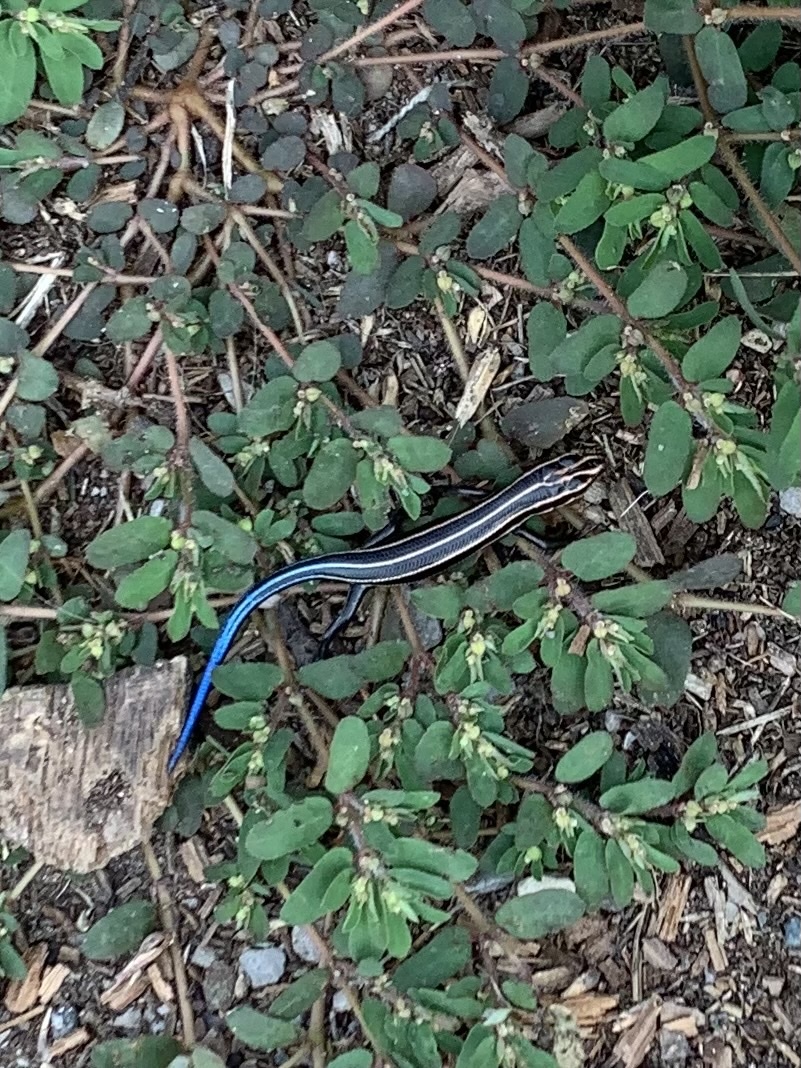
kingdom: Animalia
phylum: Chordata
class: Squamata
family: Scincidae
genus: Plestiodon
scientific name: Plestiodon fasciatus
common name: Five-lined skink
